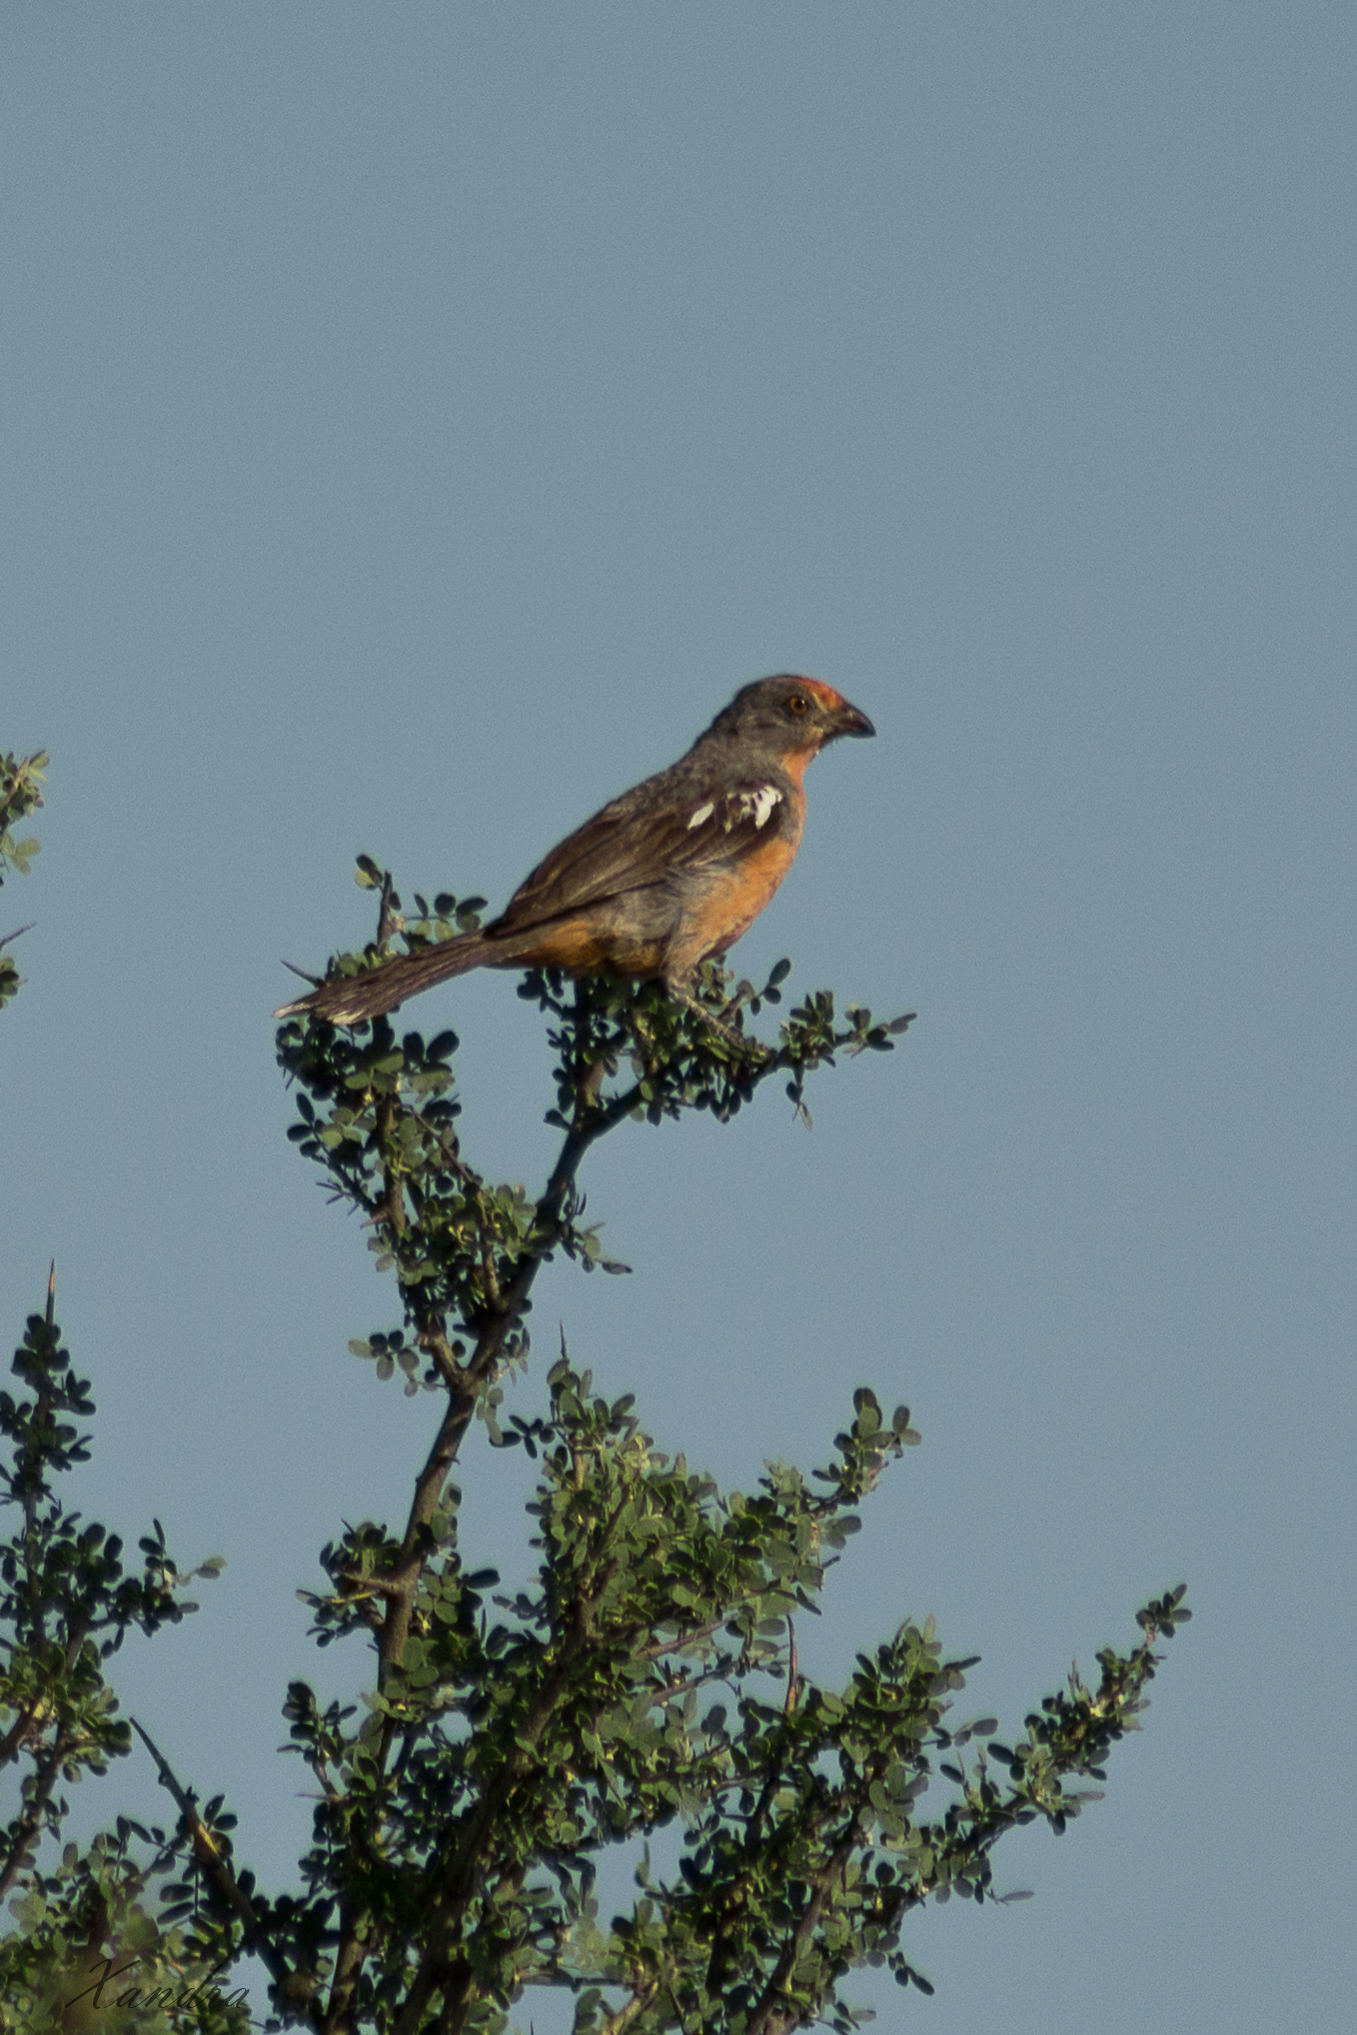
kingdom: Animalia
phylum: Chordata
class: Aves
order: Passeriformes
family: Cotingidae
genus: Phytotoma
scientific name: Phytotoma rutila
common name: White-tipped plantcutter
